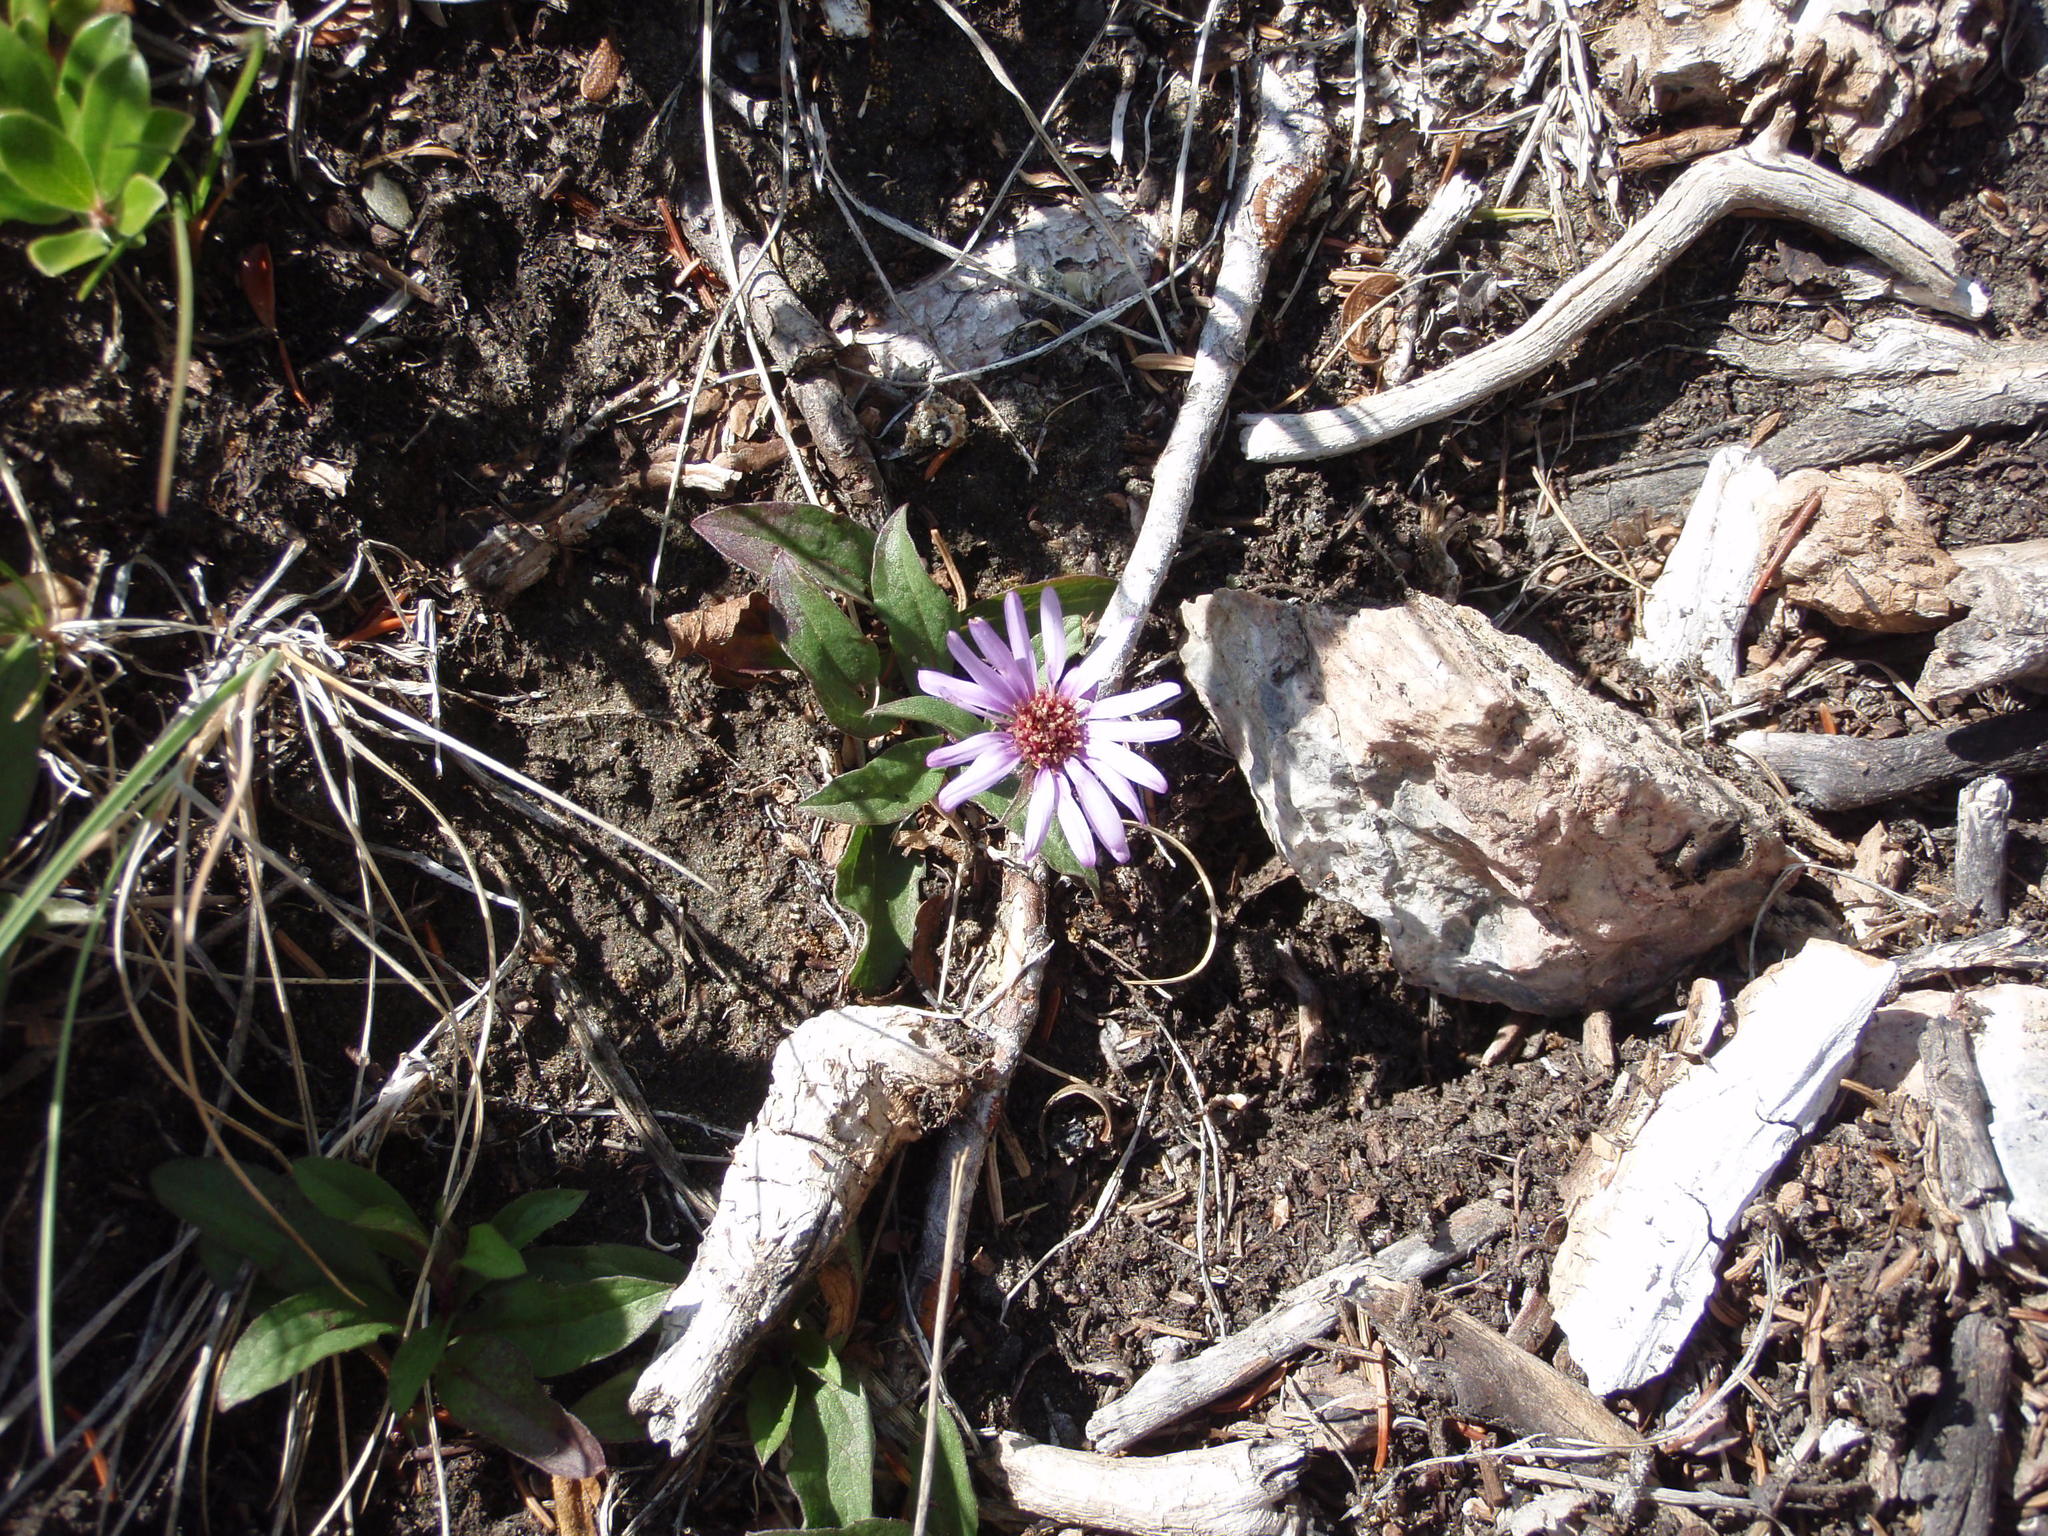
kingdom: Plantae
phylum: Tracheophyta
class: Magnoliopsida
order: Asterales
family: Asteraceae
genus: Eurybia
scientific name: Eurybia sibirica
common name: Arctic aster
